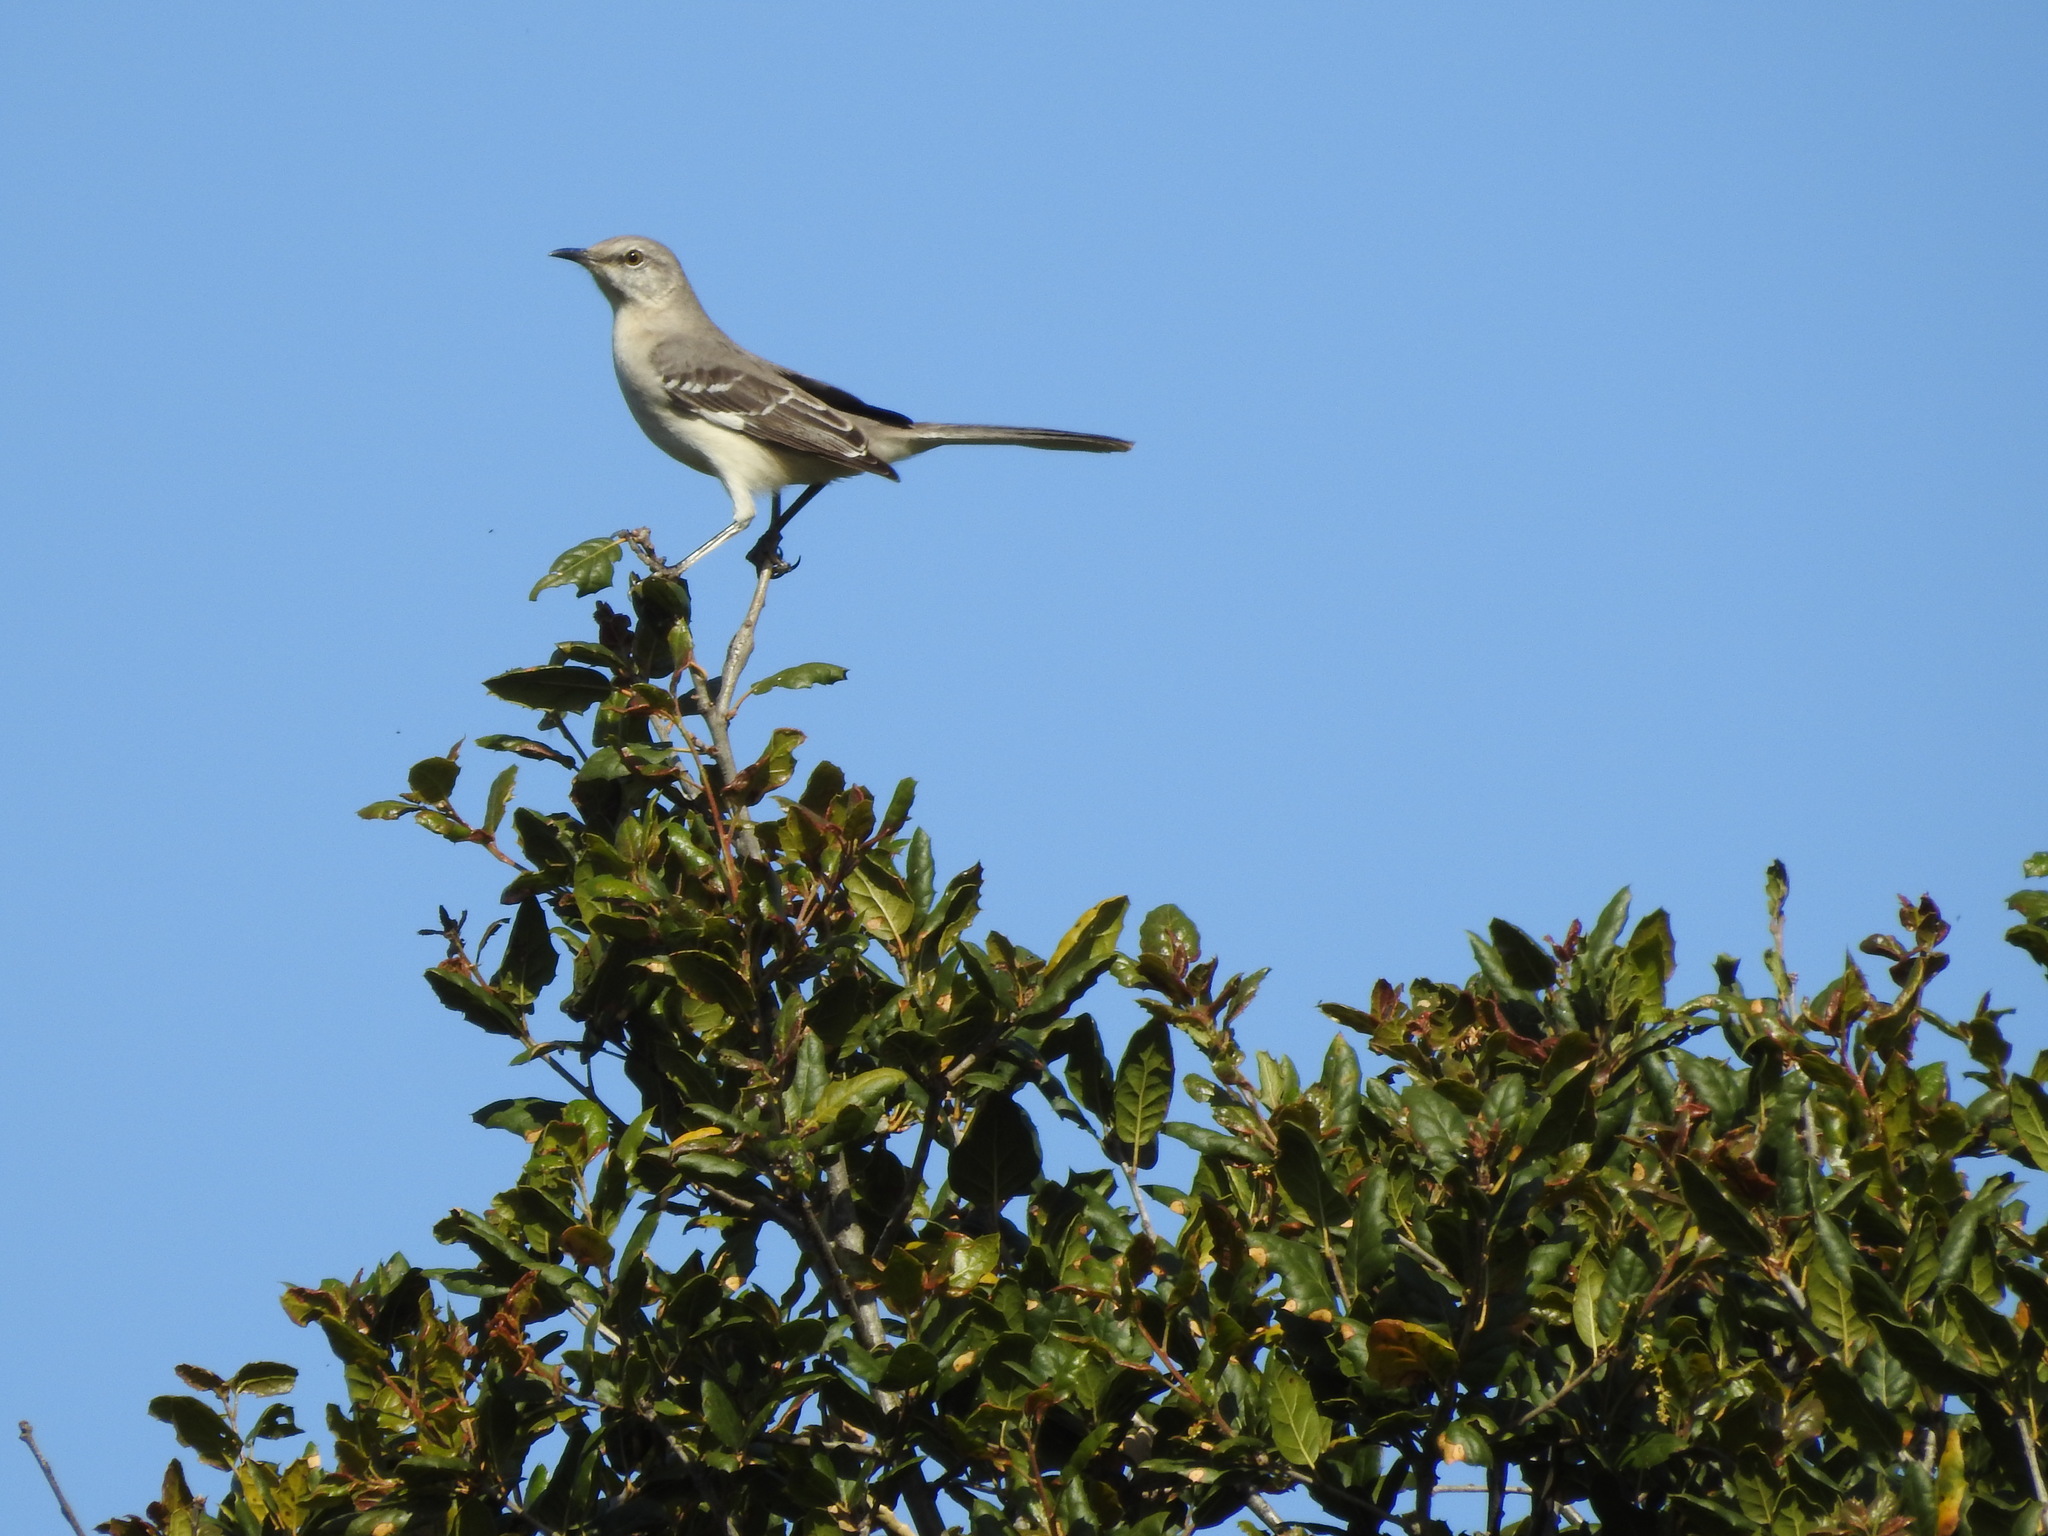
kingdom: Animalia
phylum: Chordata
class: Aves
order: Passeriformes
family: Mimidae
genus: Mimus
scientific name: Mimus polyglottos
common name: Northern mockingbird
